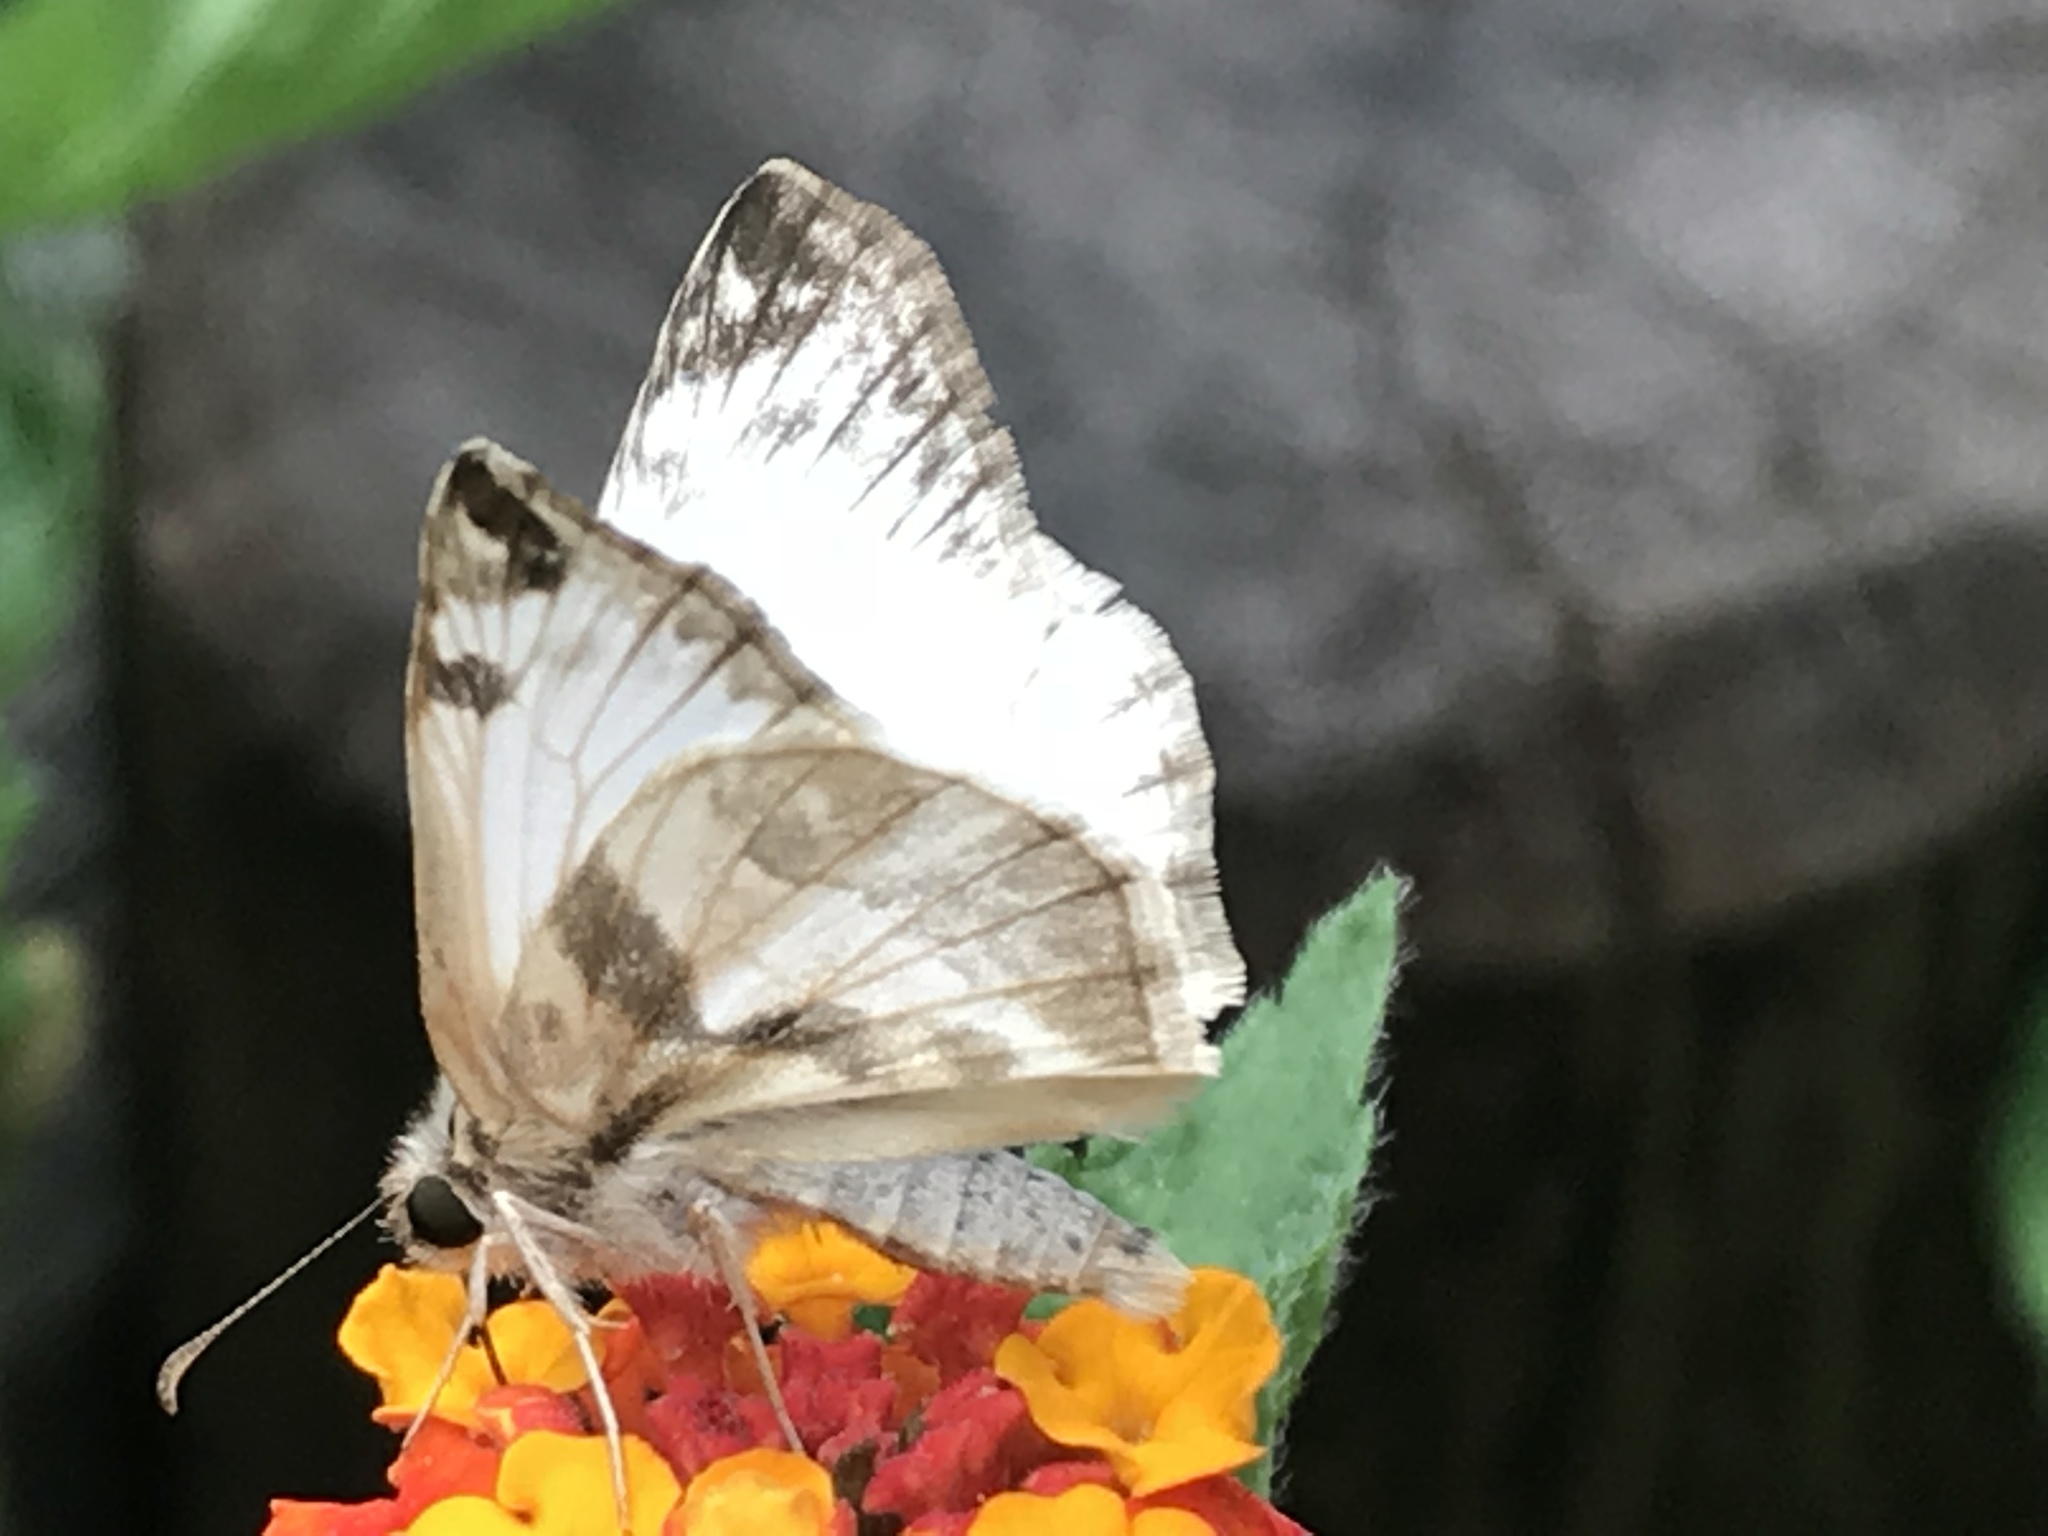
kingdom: Animalia
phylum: Arthropoda
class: Insecta
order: Lepidoptera
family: Hesperiidae
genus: Heliopetes
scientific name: Heliopetes laviana
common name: Laviana white-skipper
